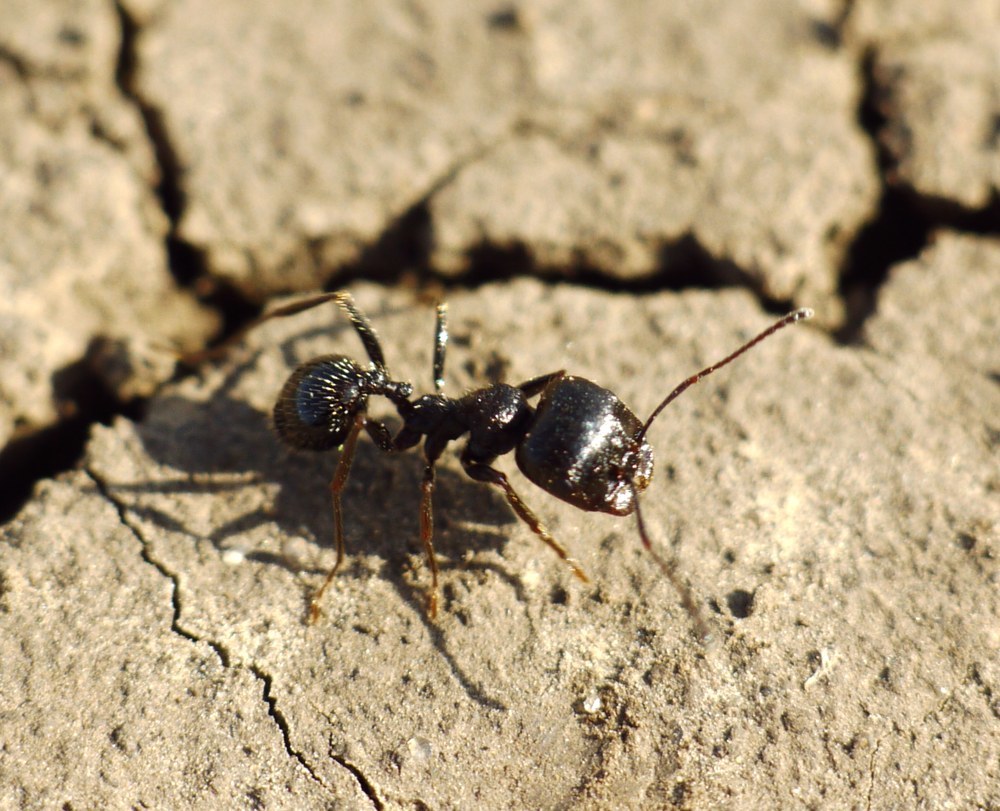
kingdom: Animalia
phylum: Arthropoda
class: Insecta
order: Hymenoptera
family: Formicidae
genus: Messor
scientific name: Messor structor
